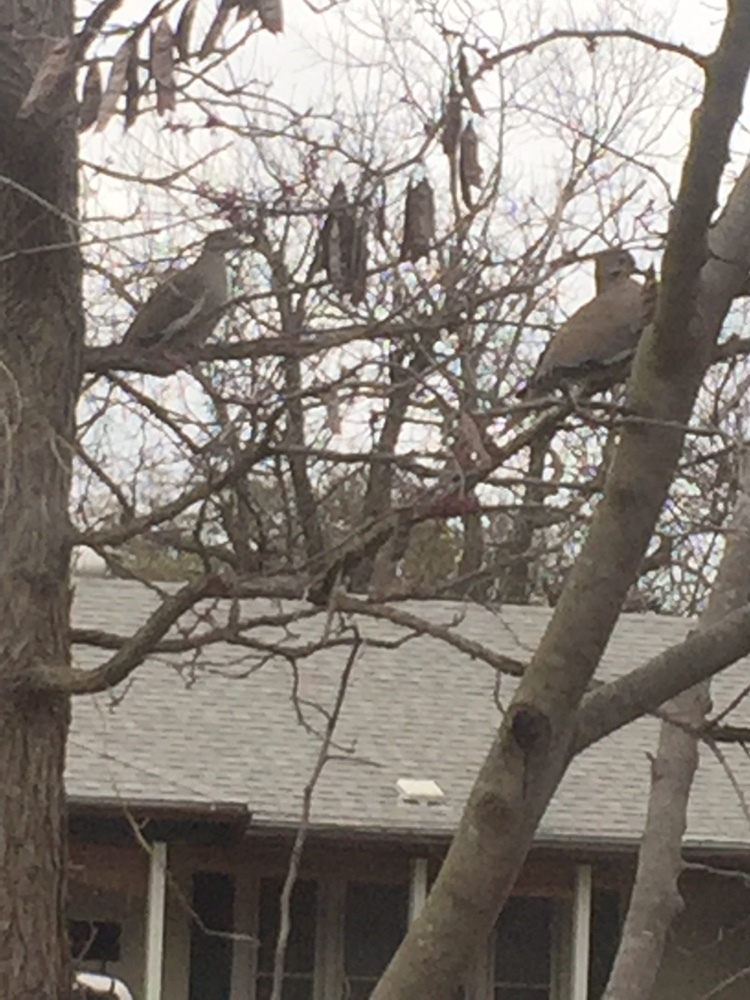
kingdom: Animalia
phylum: Chordata
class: Aves
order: Columbiformes
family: Columbidae
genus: Zenaida
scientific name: Zenaida asiatica
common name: White-winged dove
